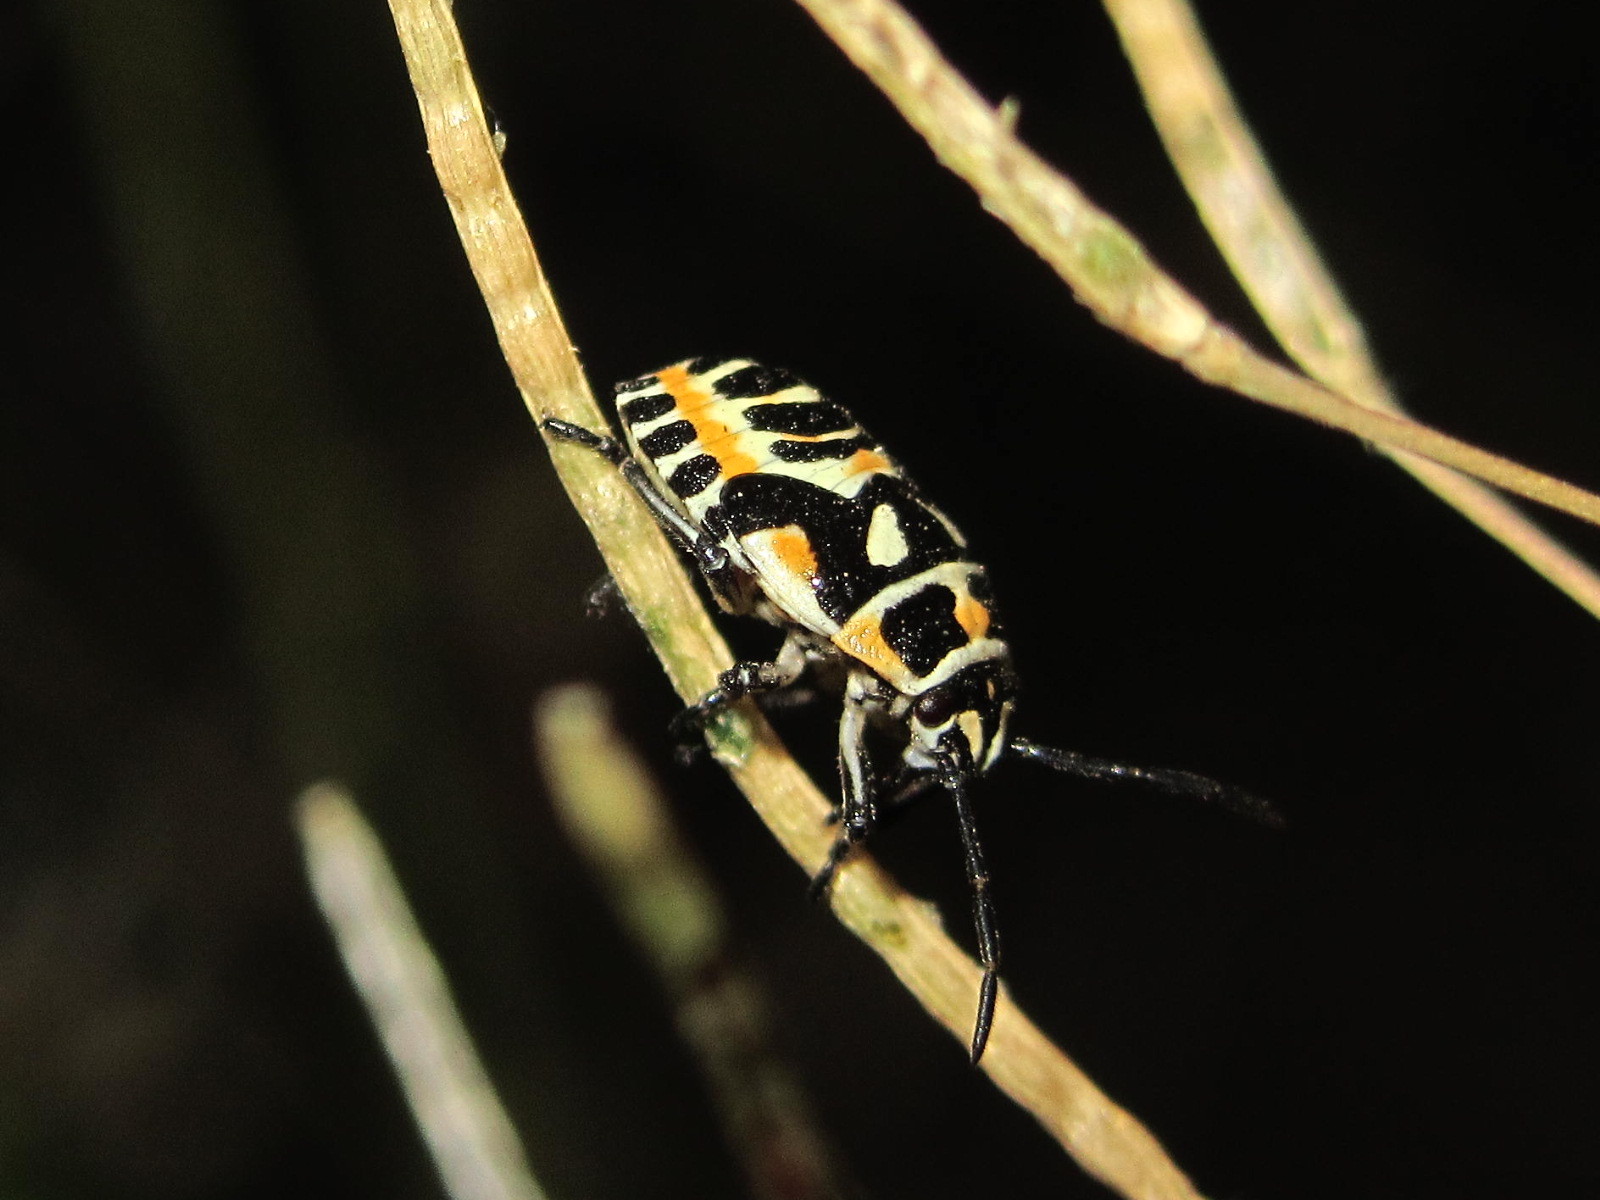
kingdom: Animalia
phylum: Arthropoda
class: Insecta
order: Hemiptera
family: Pentatomidae
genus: Eurydema
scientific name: Eurydema ornata
